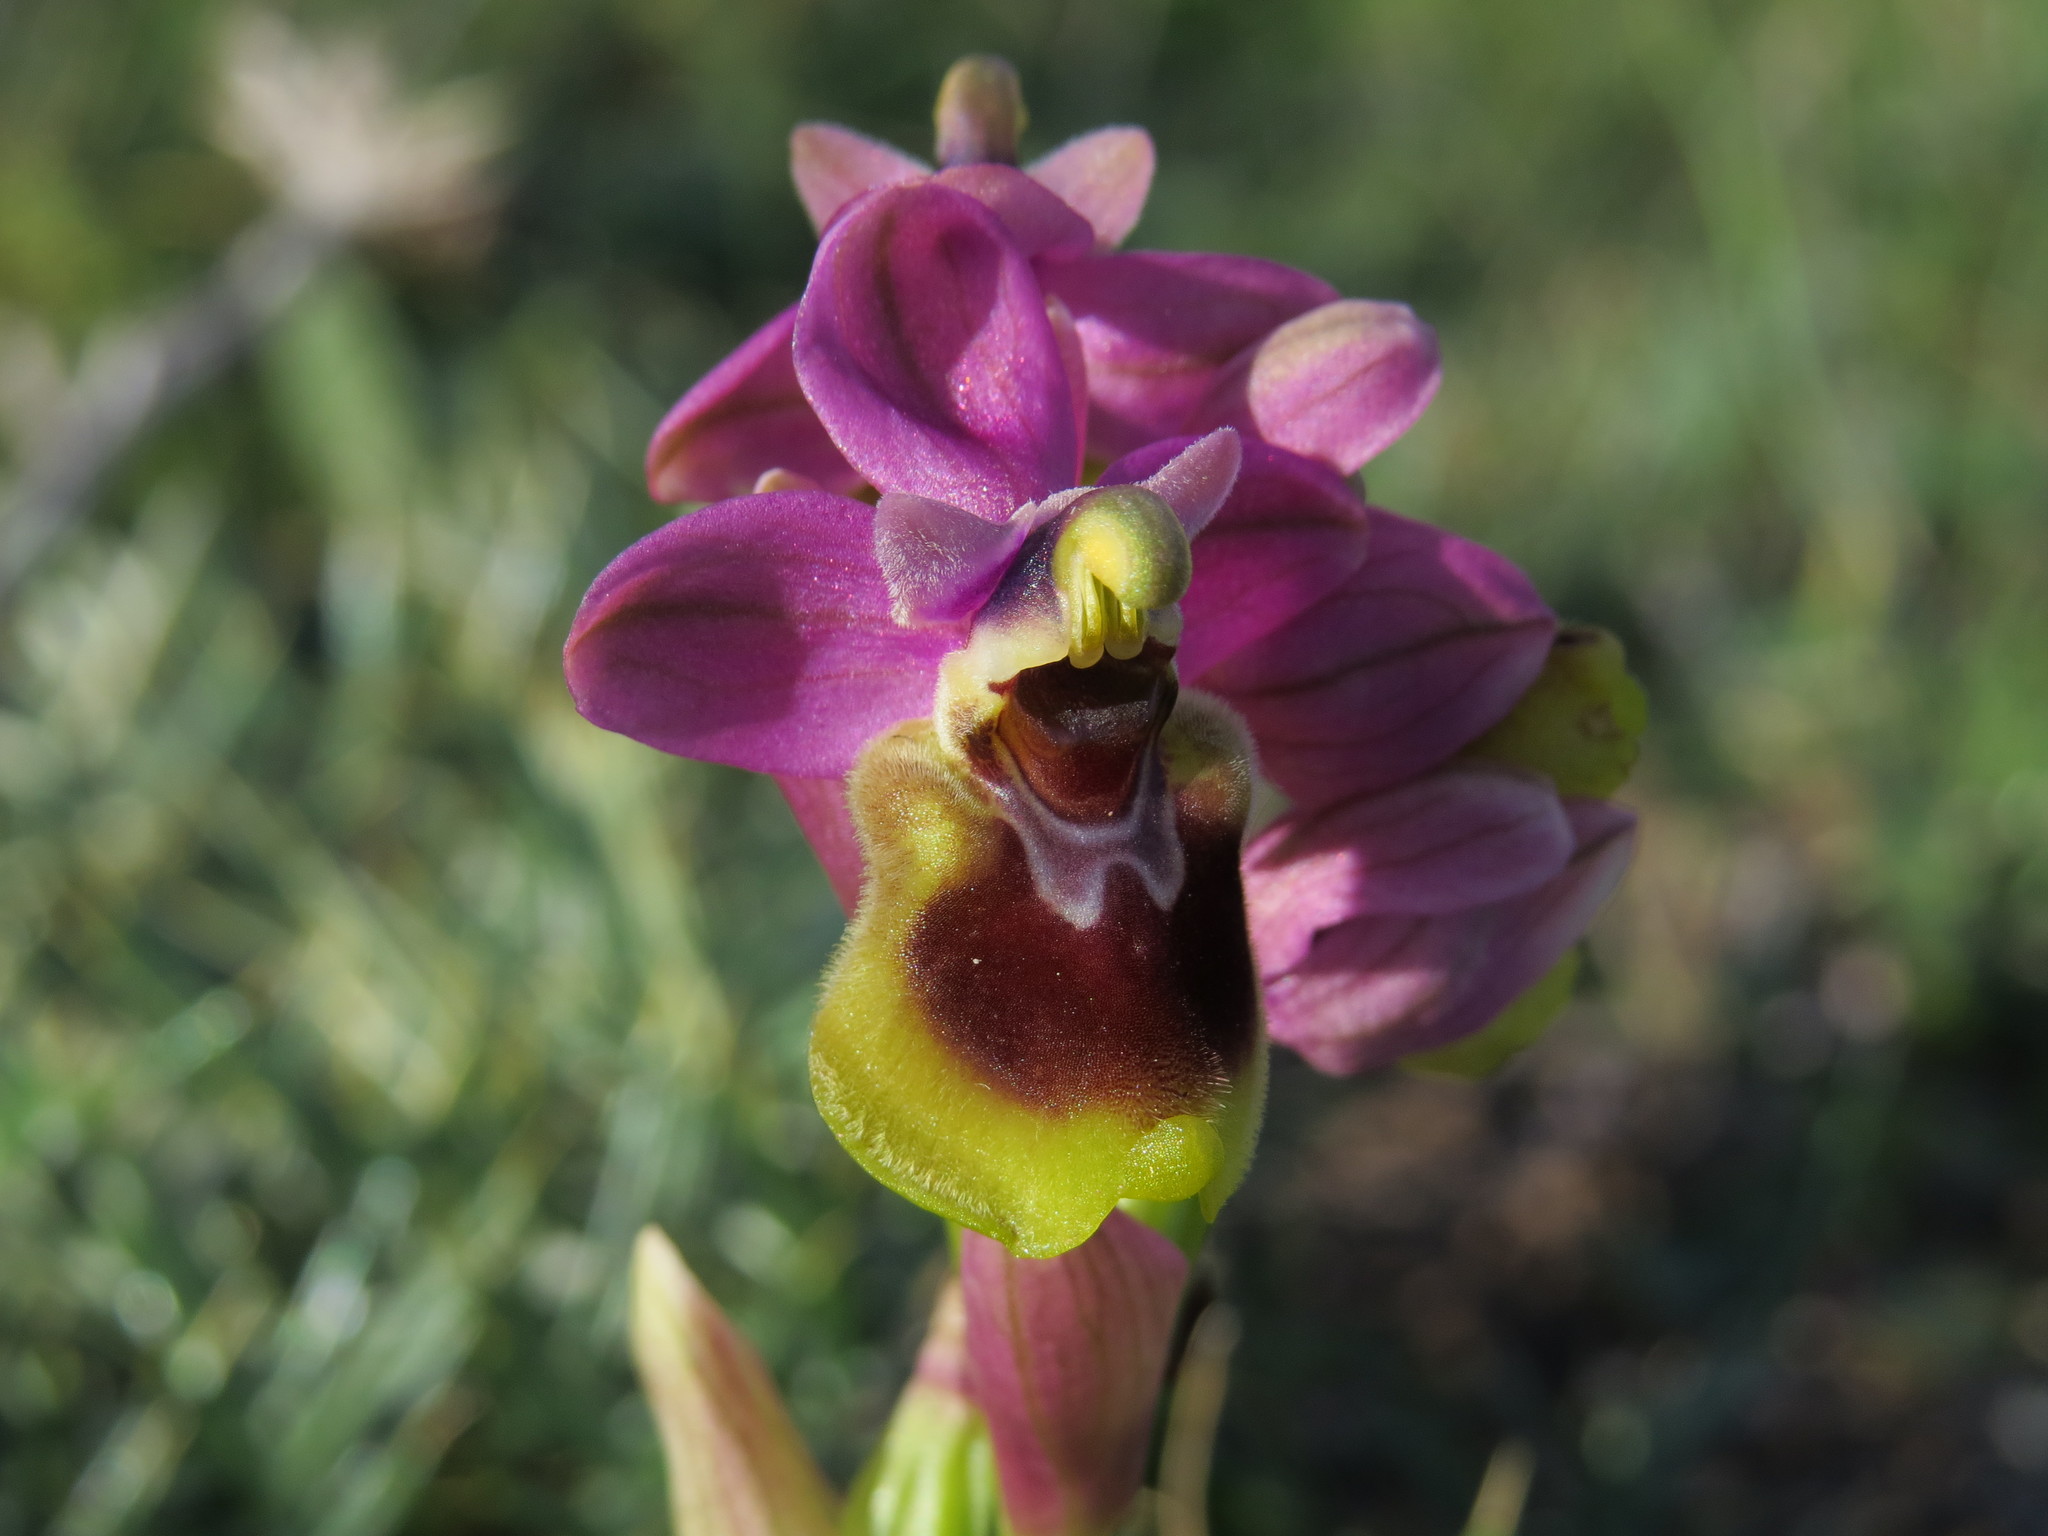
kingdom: Plantae
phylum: Tracheophyta
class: Liliopsida
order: Asparagales
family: Orchidaceae
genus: Ophrys
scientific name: Ophrys tenthredinifera
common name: Sawfly orchid
